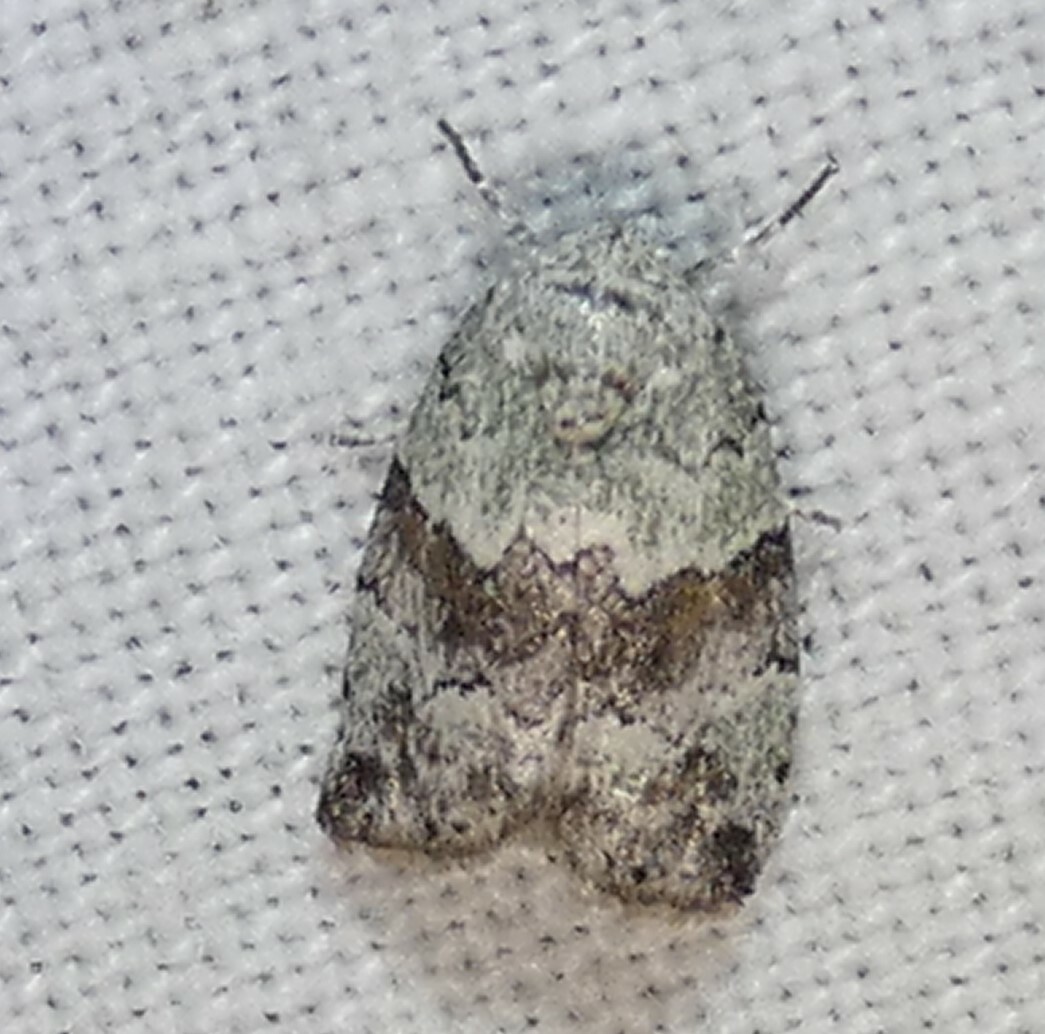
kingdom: Animalia
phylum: Arthropoda
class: Insecta
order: Lepidoptera
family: Nolidae
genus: Afrida
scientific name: Afrida ydatodes
